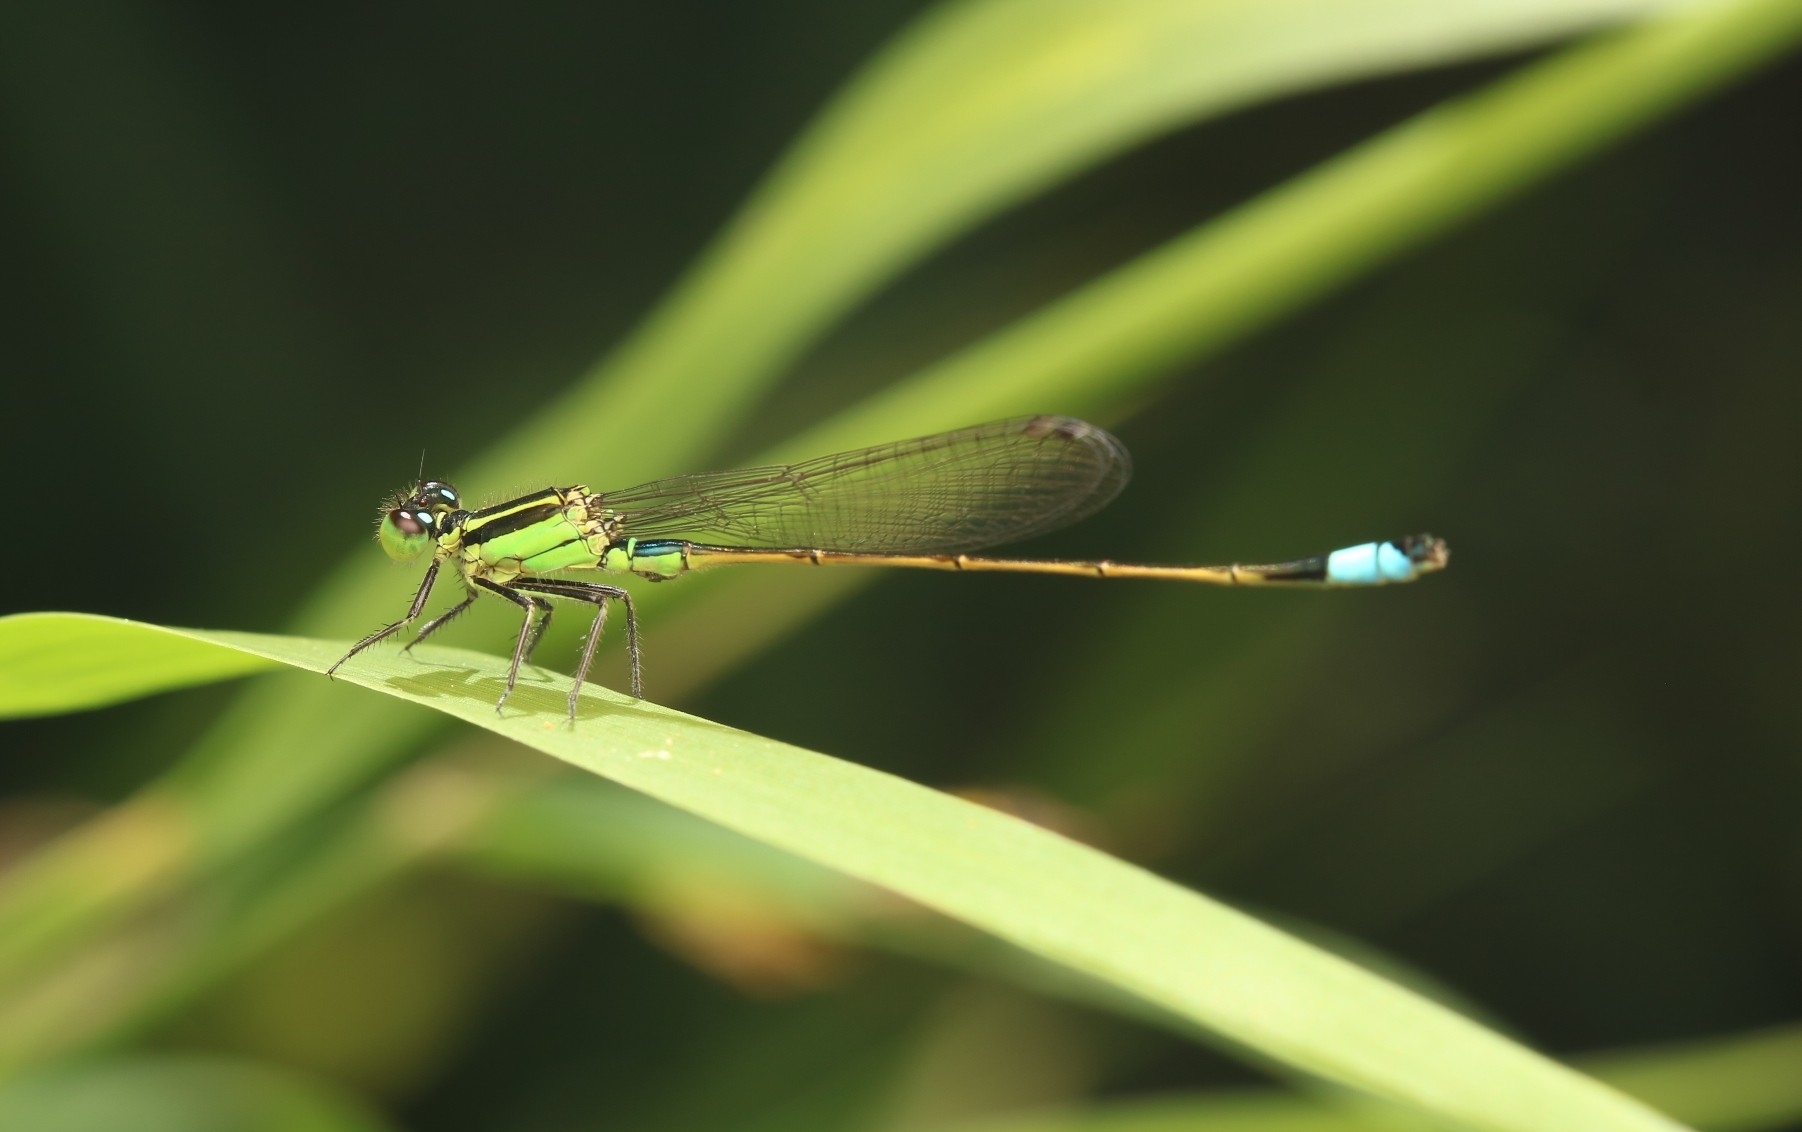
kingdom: Animalia
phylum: Arthropoda
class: Insecta
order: Odonata
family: Coenagrionidae
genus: Ischnura
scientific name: Ischnura ramburii
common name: Rambur's forktail
